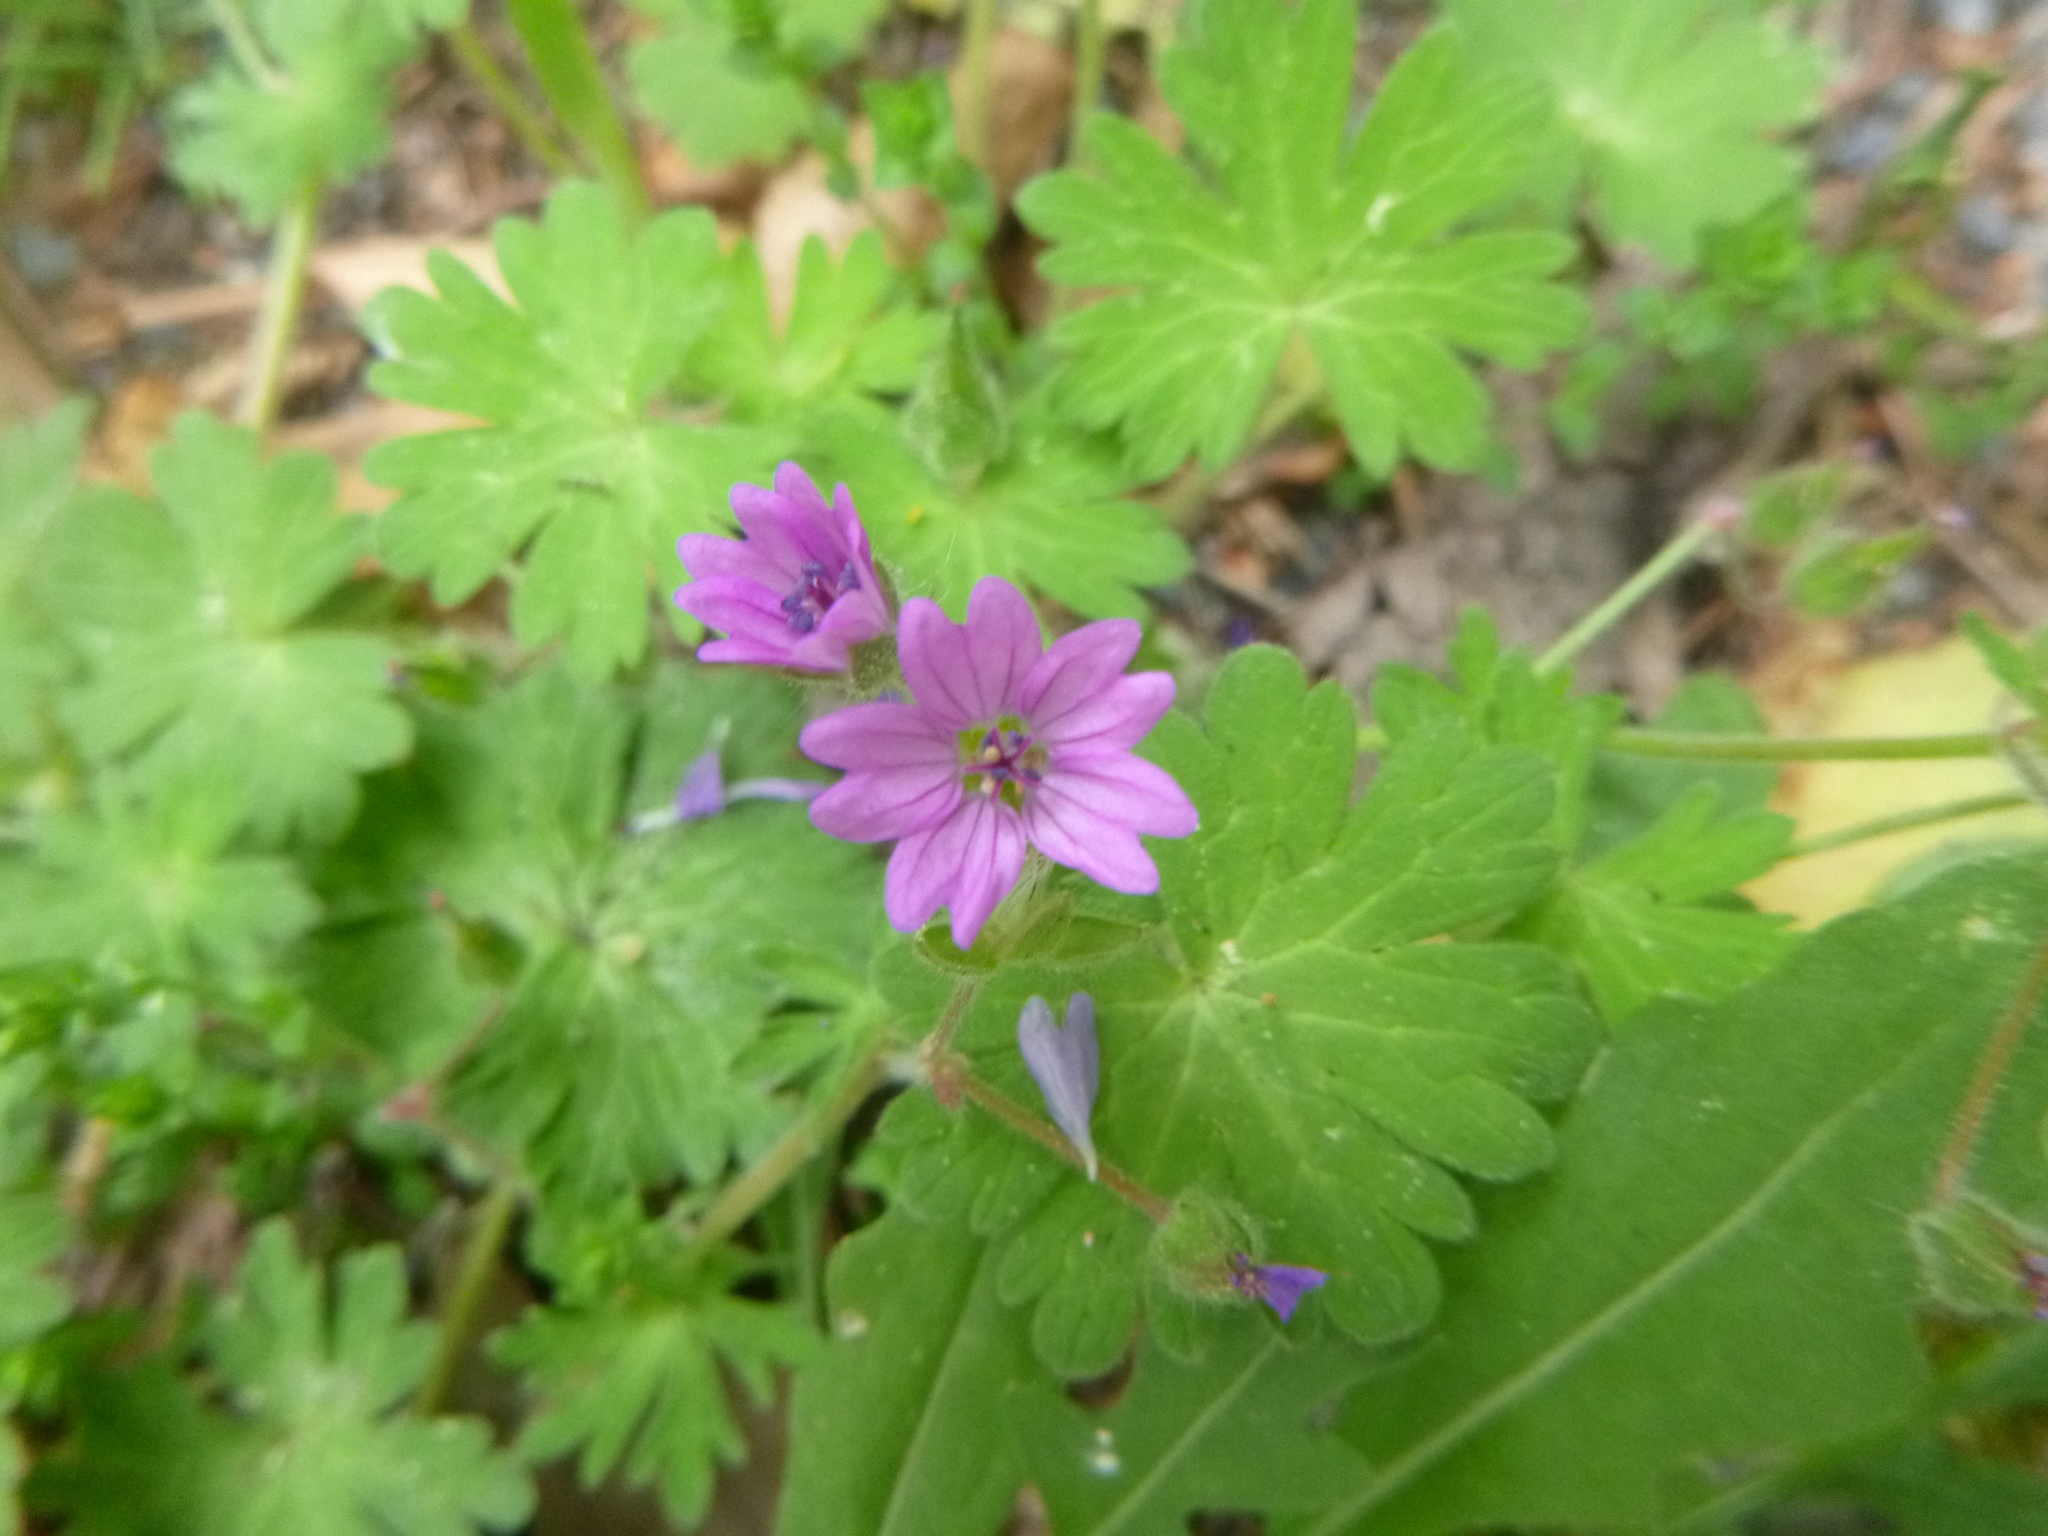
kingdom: Plantae
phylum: Tracheophyta
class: Magnoliopsida
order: Geraniales
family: Geraniaceae
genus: Geranium
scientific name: Geranium molle
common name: Dove's-foot crane's-bill
